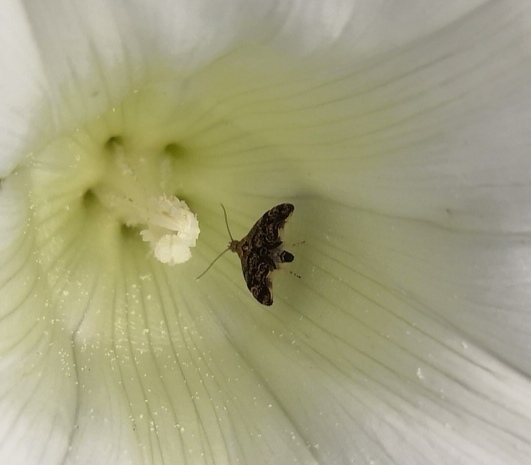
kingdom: Animalia
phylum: Arthropoda
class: Insecta
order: Lepidoptera
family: Choreutidae
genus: Anthophila
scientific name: Anthophila fabriciana
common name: Nettle-tap
